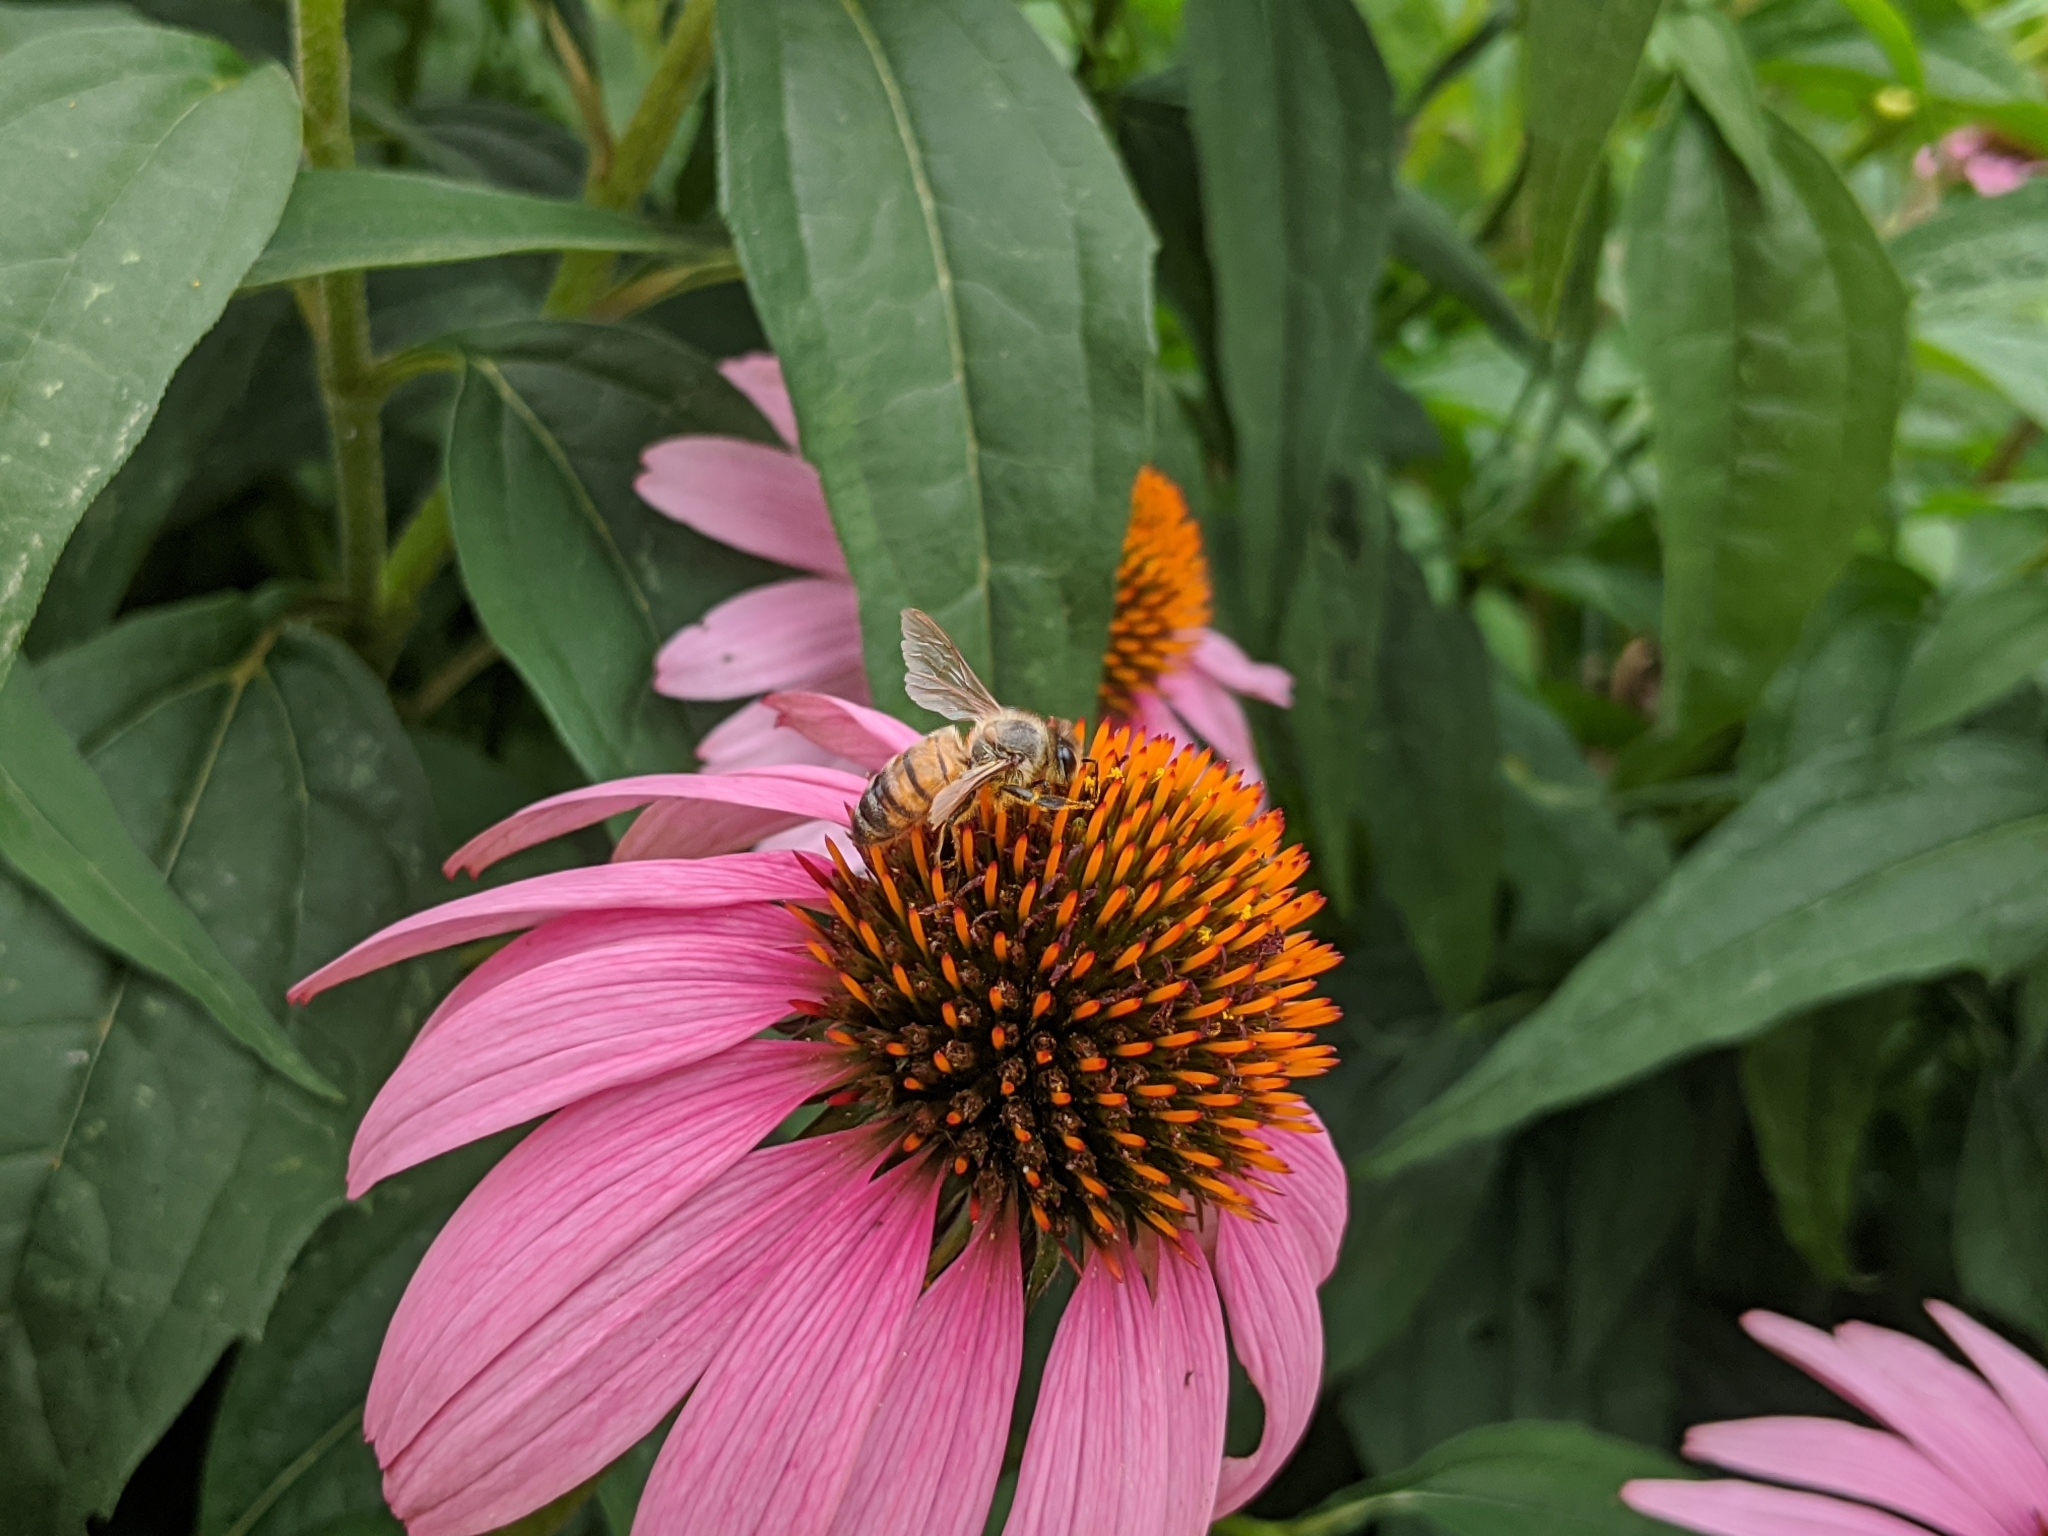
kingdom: Animalia
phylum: Arthropoda
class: Insecta
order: Hymenoptera
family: Apidae
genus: Apis
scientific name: Apis mellifera
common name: Honey bee
